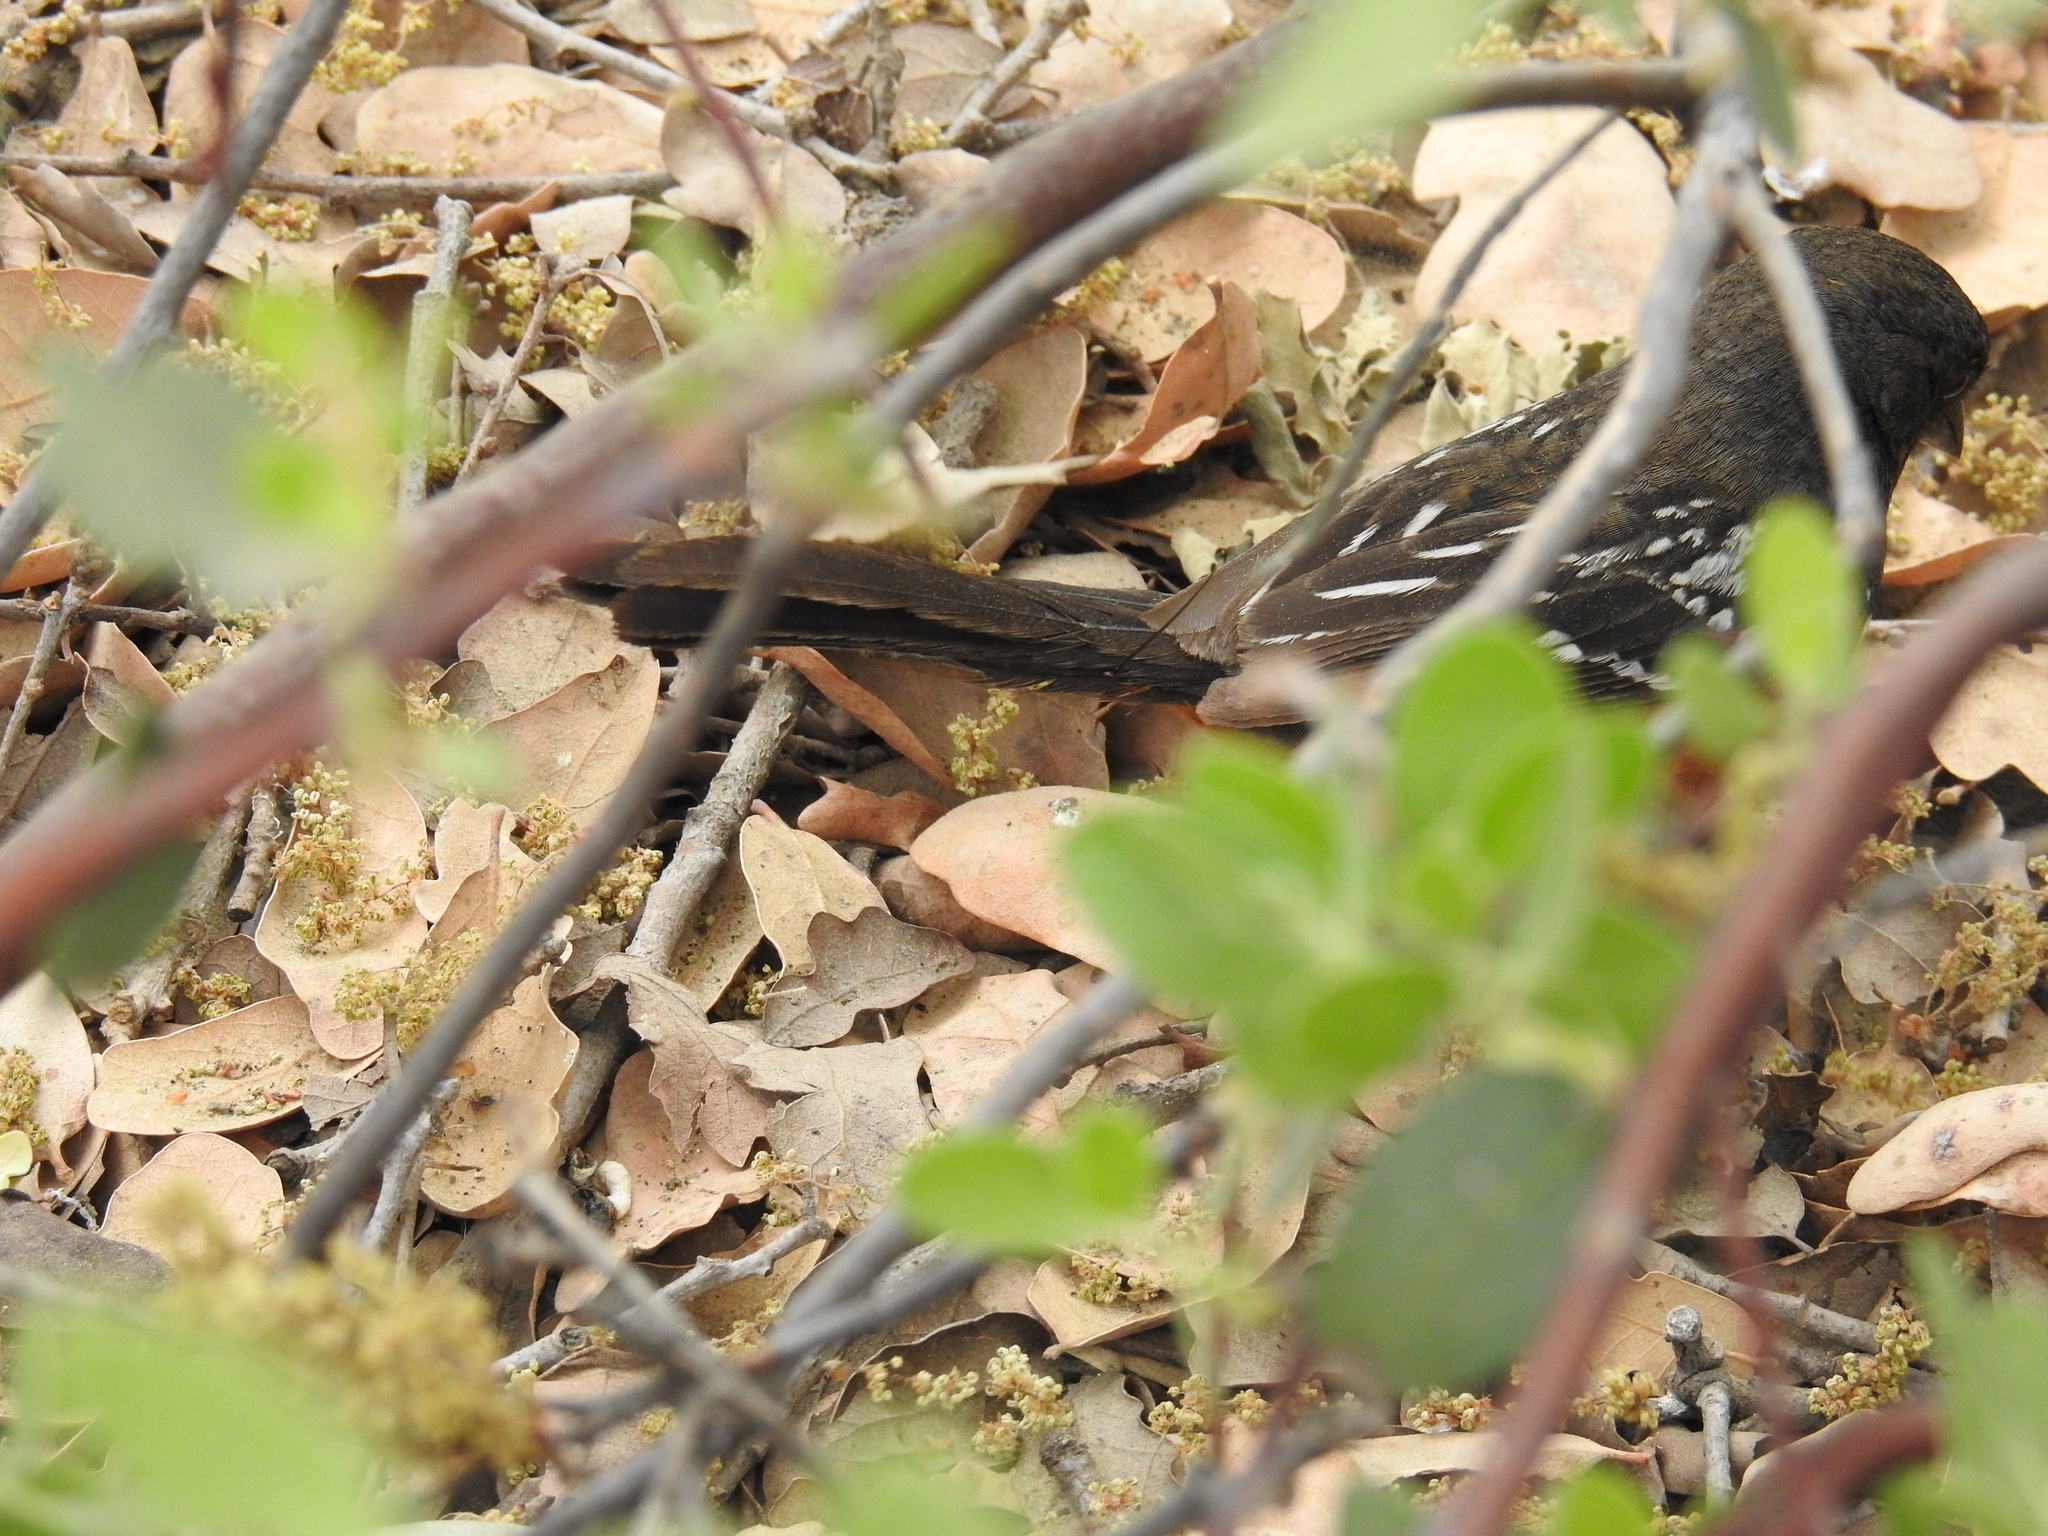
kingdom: Animalia
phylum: Chordata
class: Aves
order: Passeriformes
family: Passerellidae
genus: Pipilo
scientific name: Pipilo maculatus
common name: Spotted towhee
